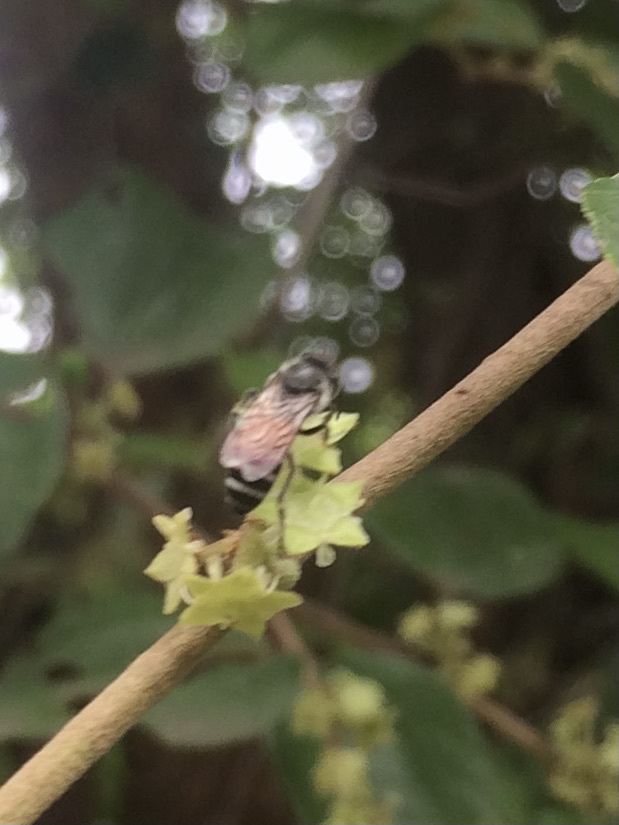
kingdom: Animalia
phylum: Arthropoda
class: Insecta
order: Hymenoptera
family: Apidae
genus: Apis
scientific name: Apis florea
